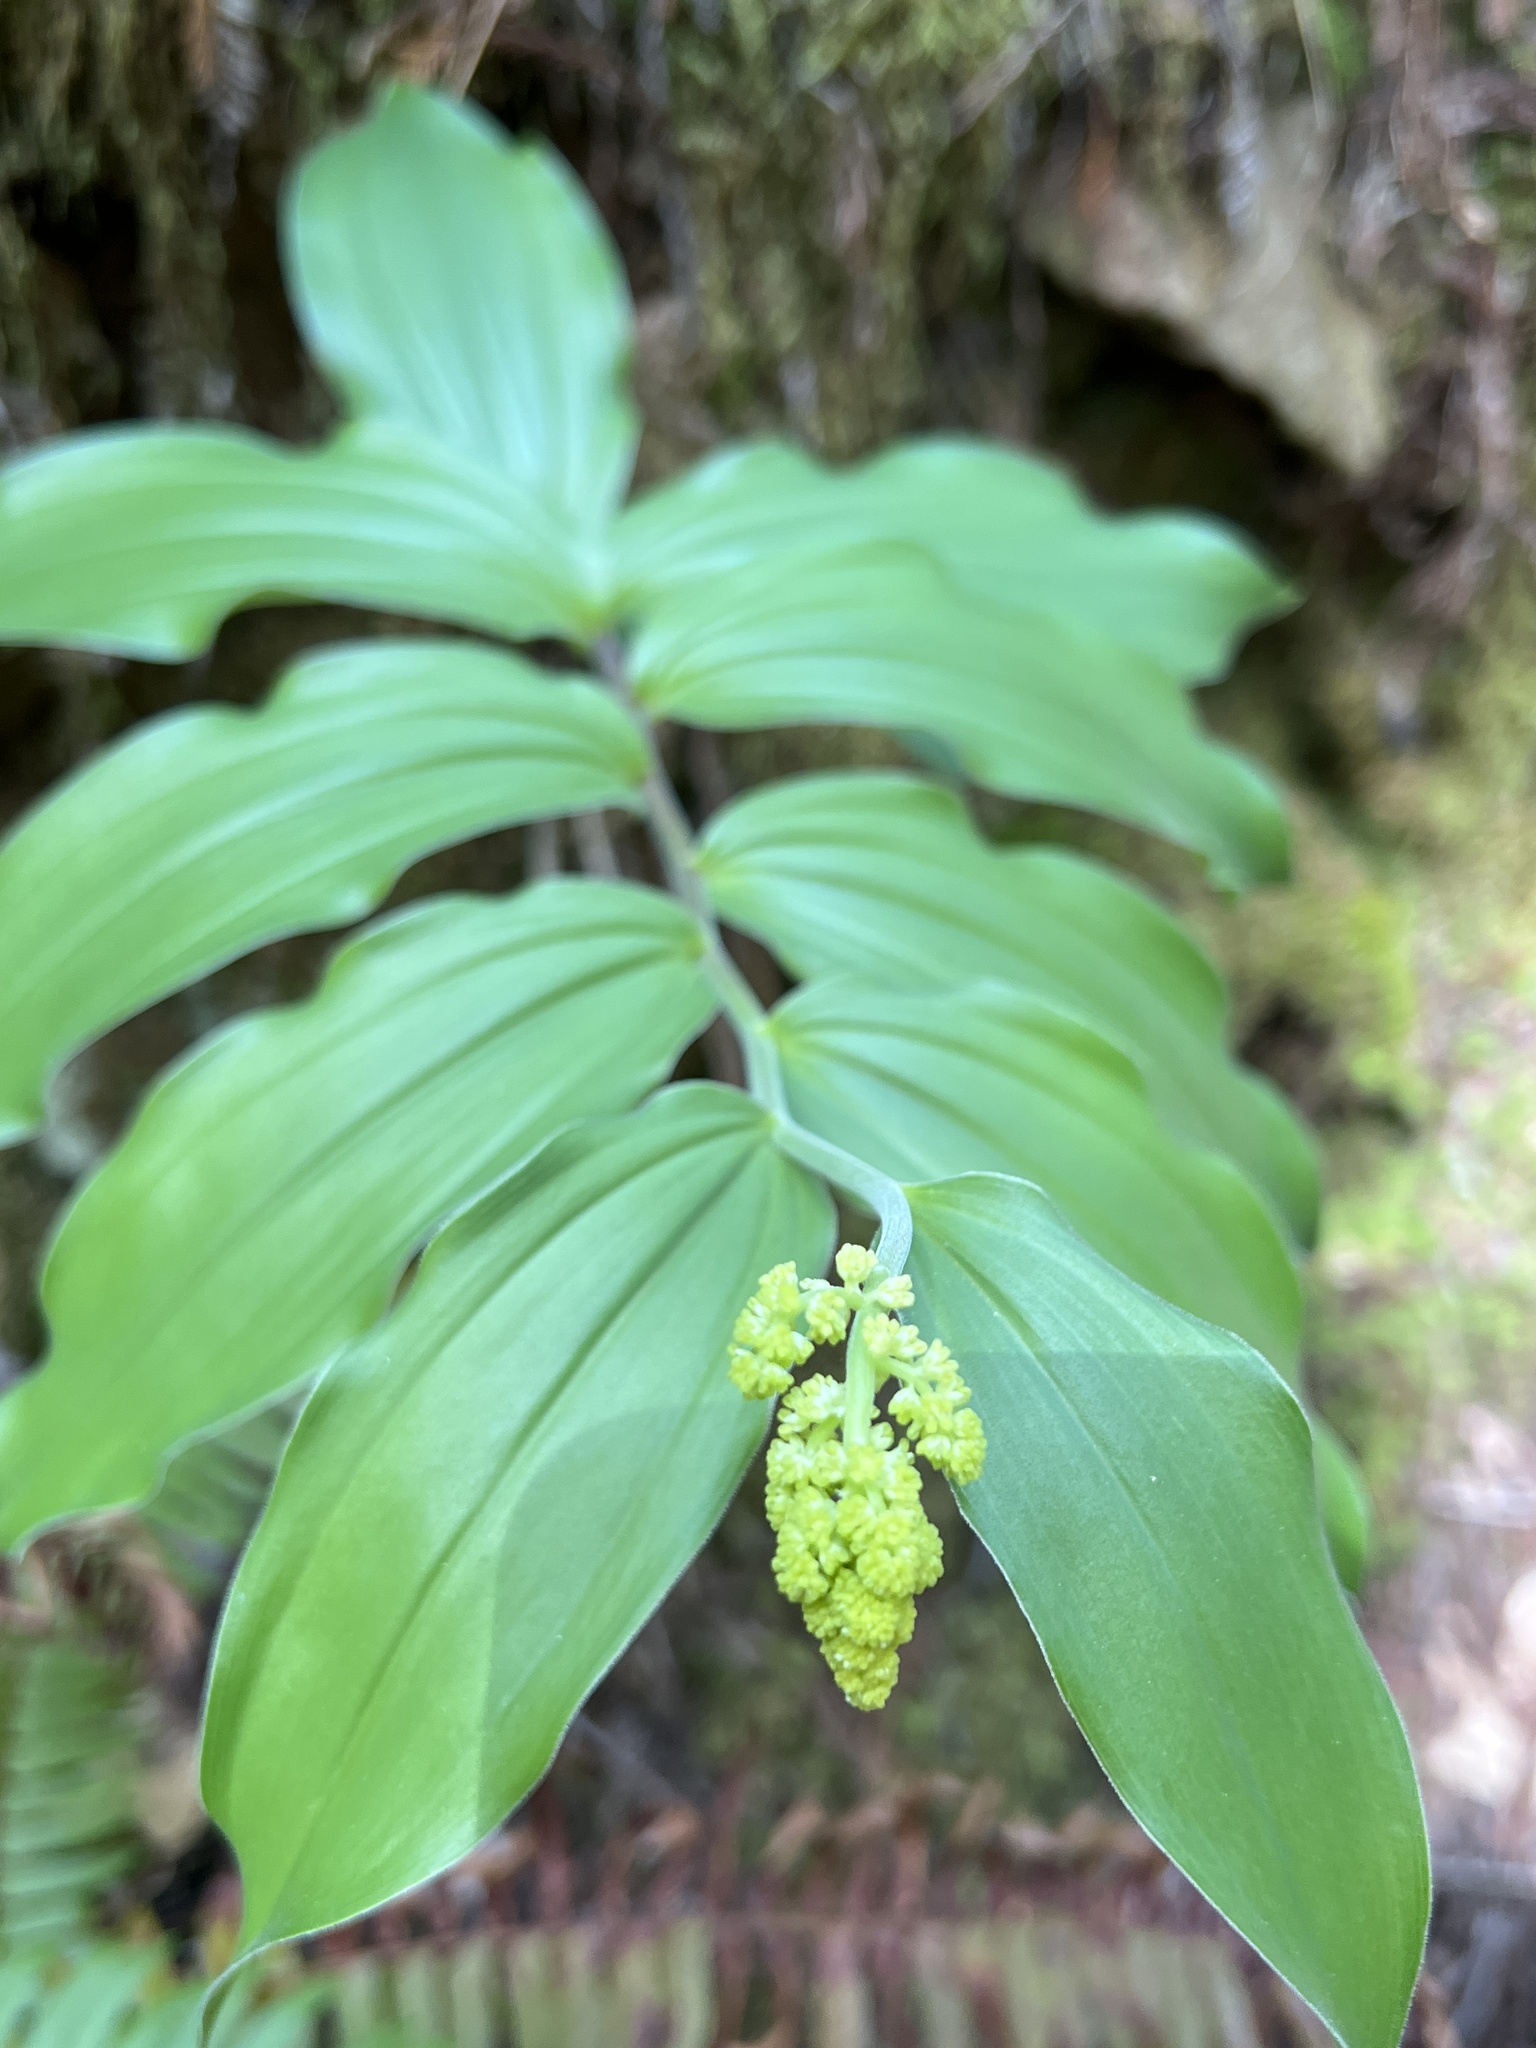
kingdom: Plantae
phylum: Tracheophyta
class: Liliopsida
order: Asparagales
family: Asparagaceae
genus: Maianthemum
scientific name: Maianthemum racemosum
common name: False spikenard
